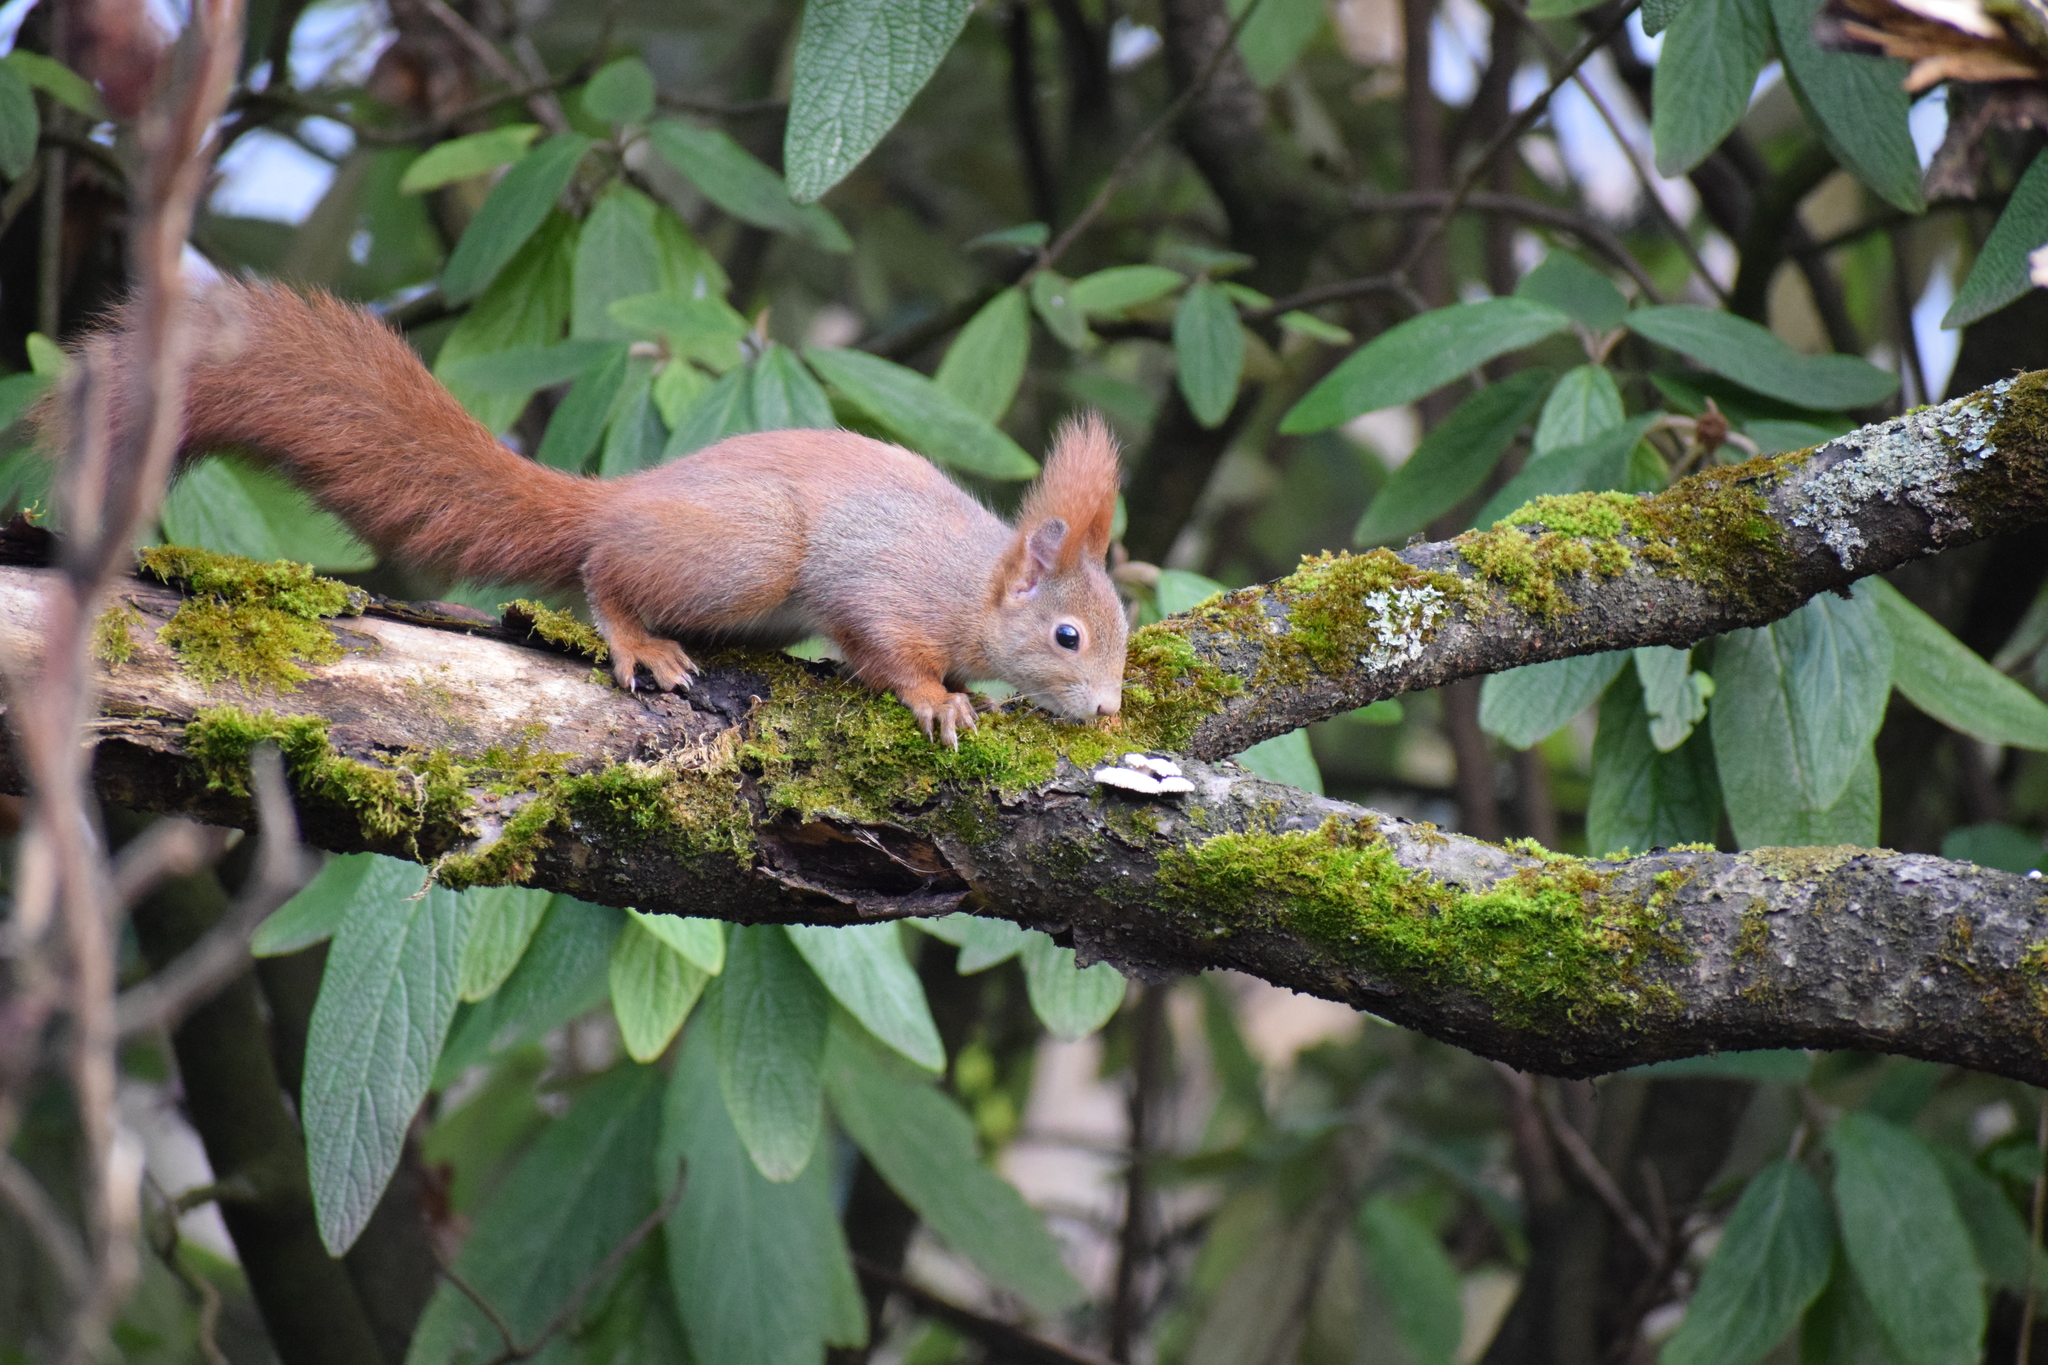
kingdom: Animalia
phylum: Chordata
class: Mammalia
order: Rodentia
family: Sciuridae
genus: Sciurus
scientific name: Sciurus vulgaris
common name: Eurasian red squirrel
